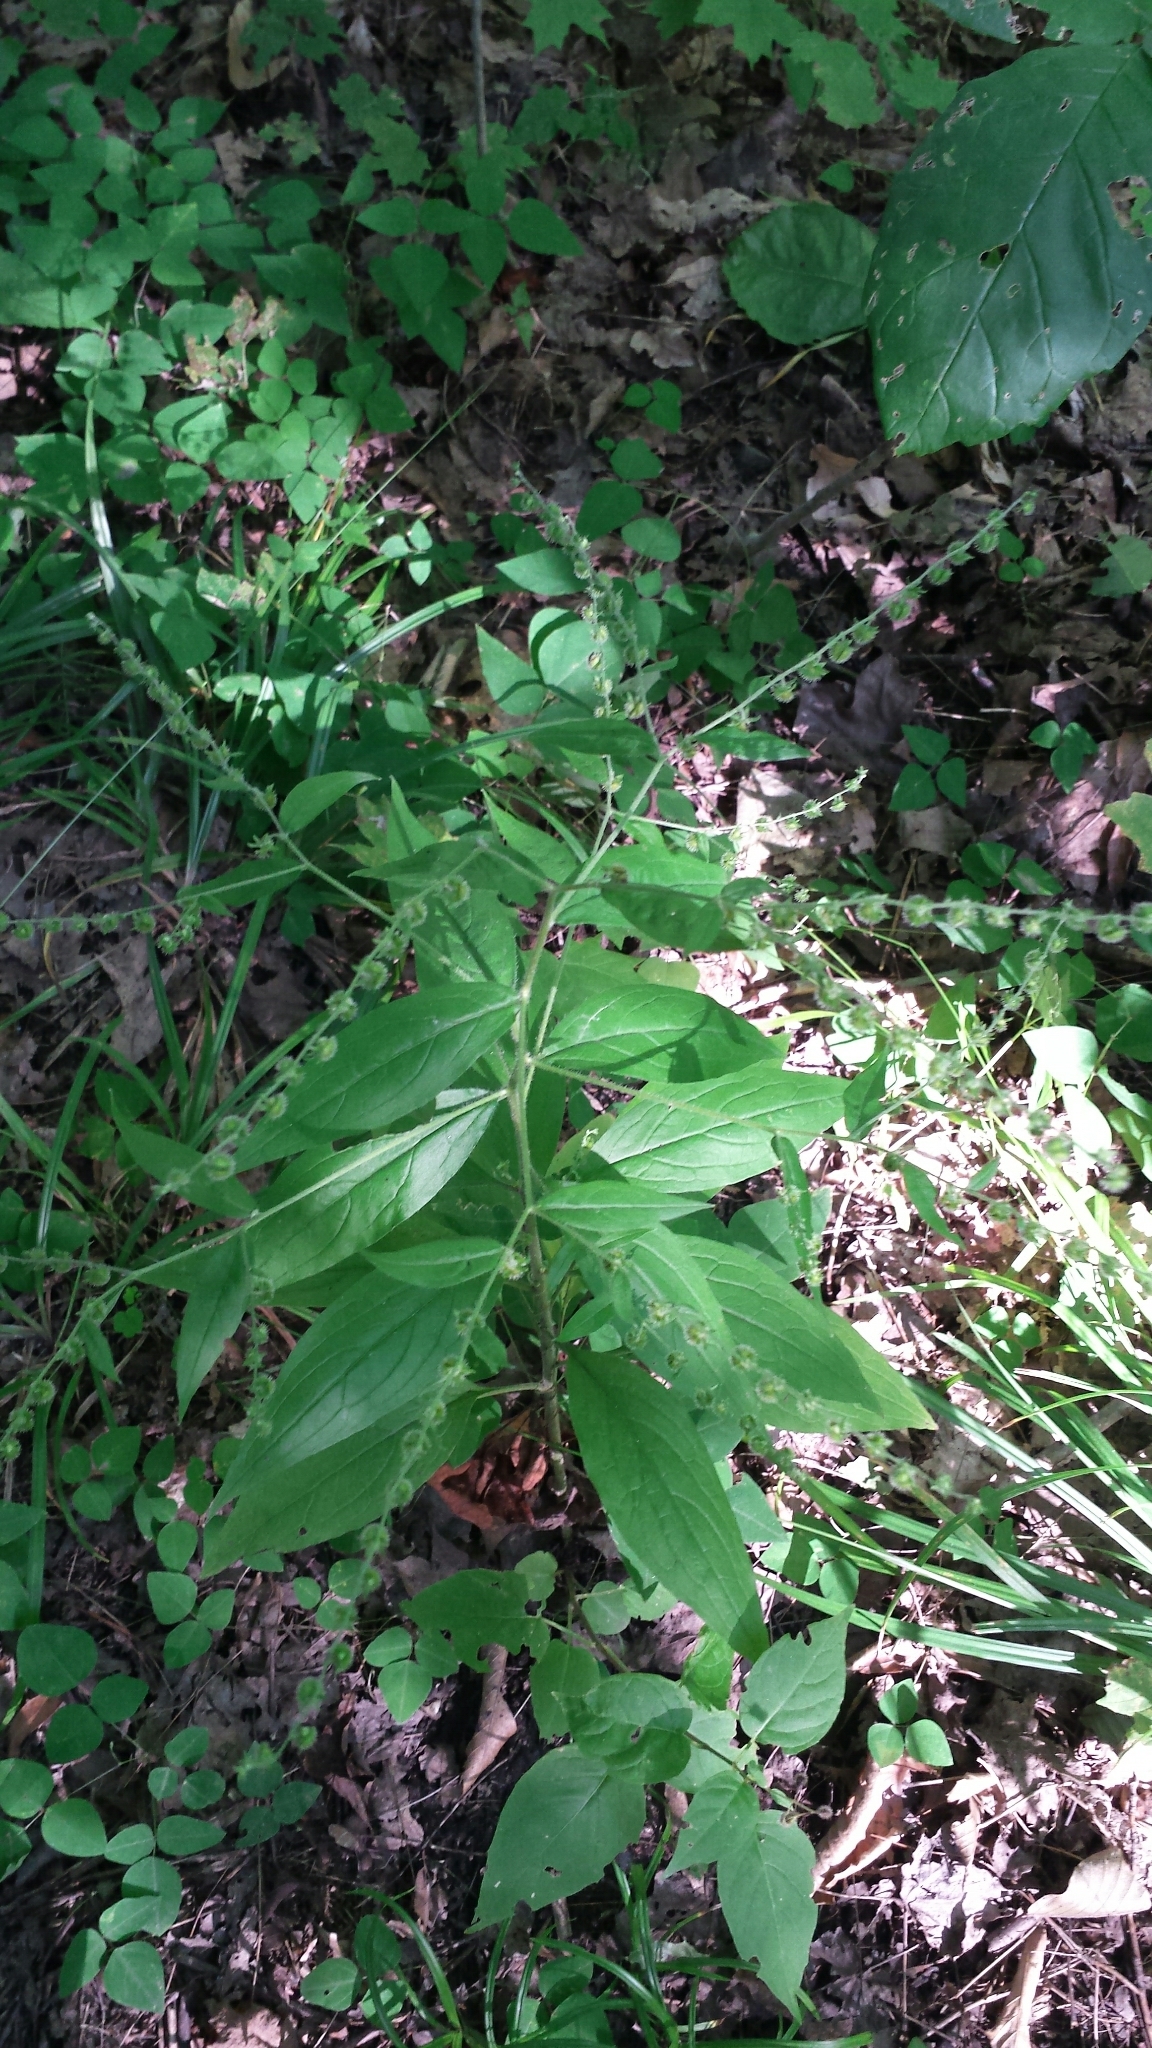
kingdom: Plantae
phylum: Tracheophyta
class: Magnoliopsida
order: Boraginales
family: Boraginaceae
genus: Hackelia
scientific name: Hackelia virginiana
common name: Beggar's-lice
